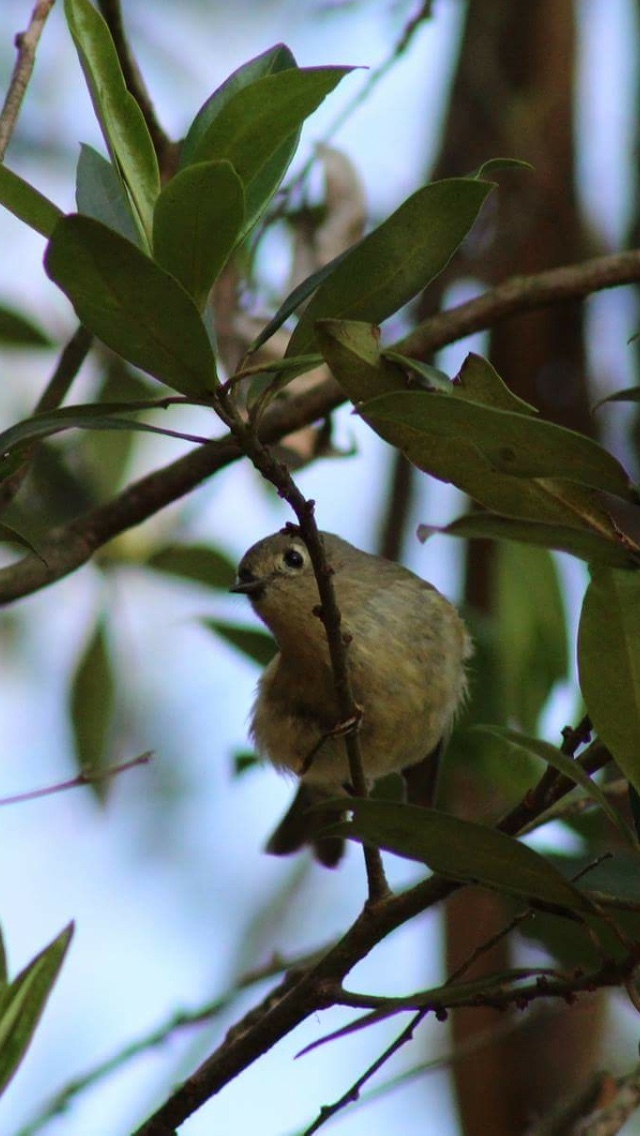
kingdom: Animalia
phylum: Chordata
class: Aves
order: Passeriformes
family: Regulidae
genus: Regulus
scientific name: Regulus calendula
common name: Ruby-crowned kinglet
